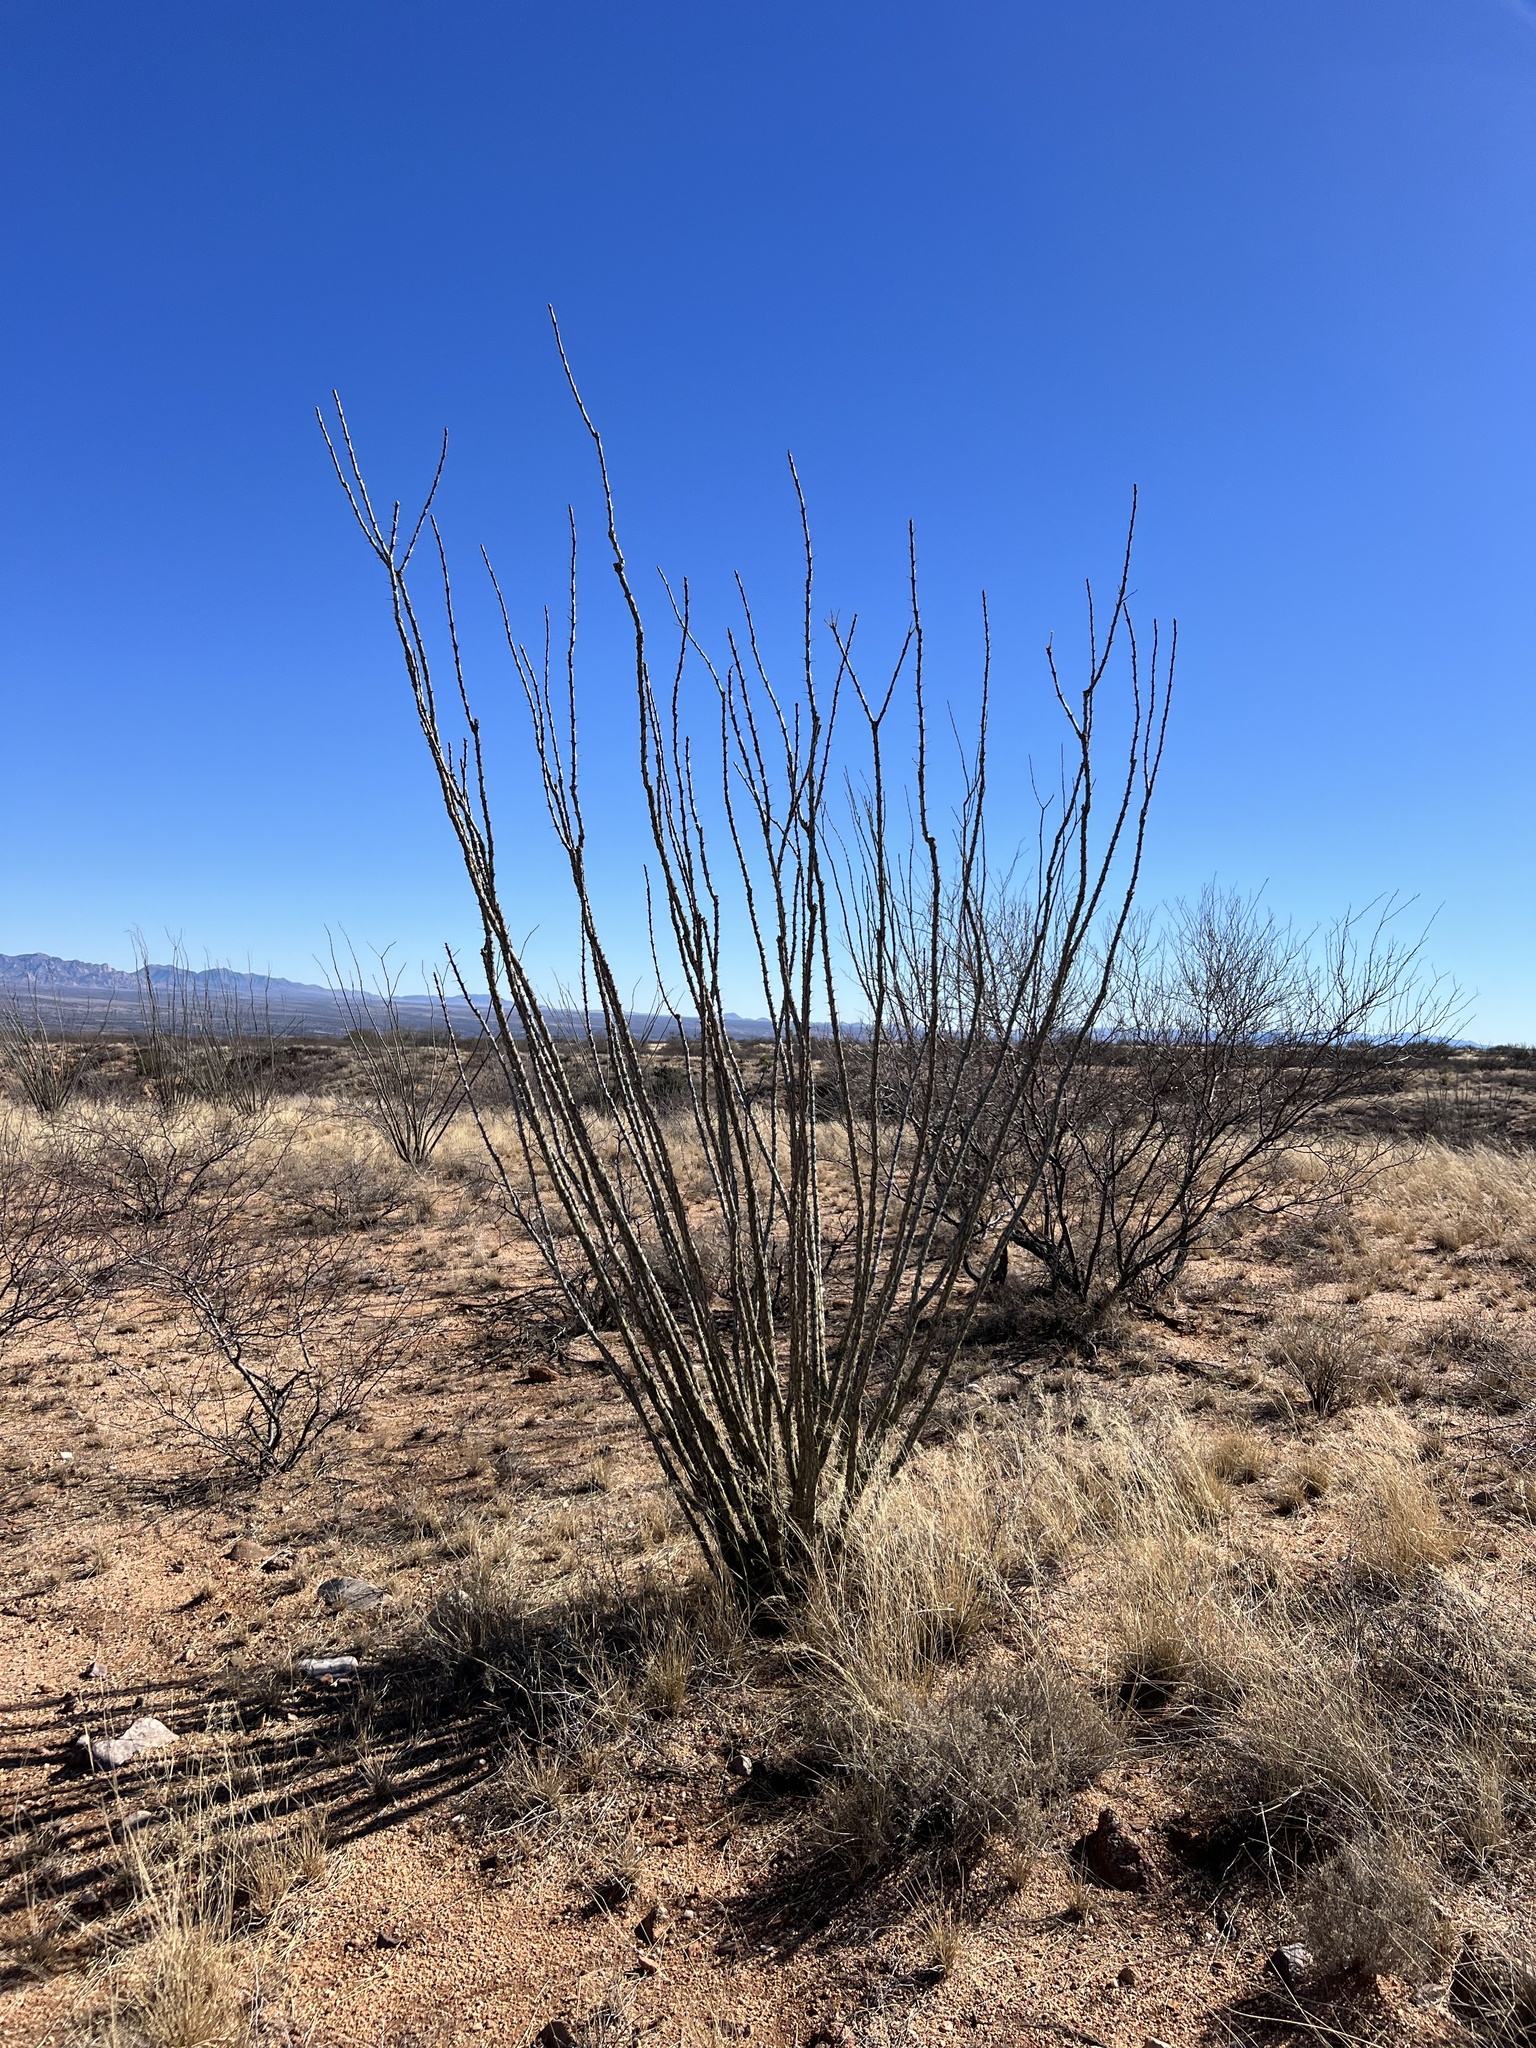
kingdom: Plantae
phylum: Tracheophyta
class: Magnoliopsida
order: Ericales
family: Fouquieriaceae
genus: Fouquieria
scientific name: Fouquieria splendens
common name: Vine-cactus
